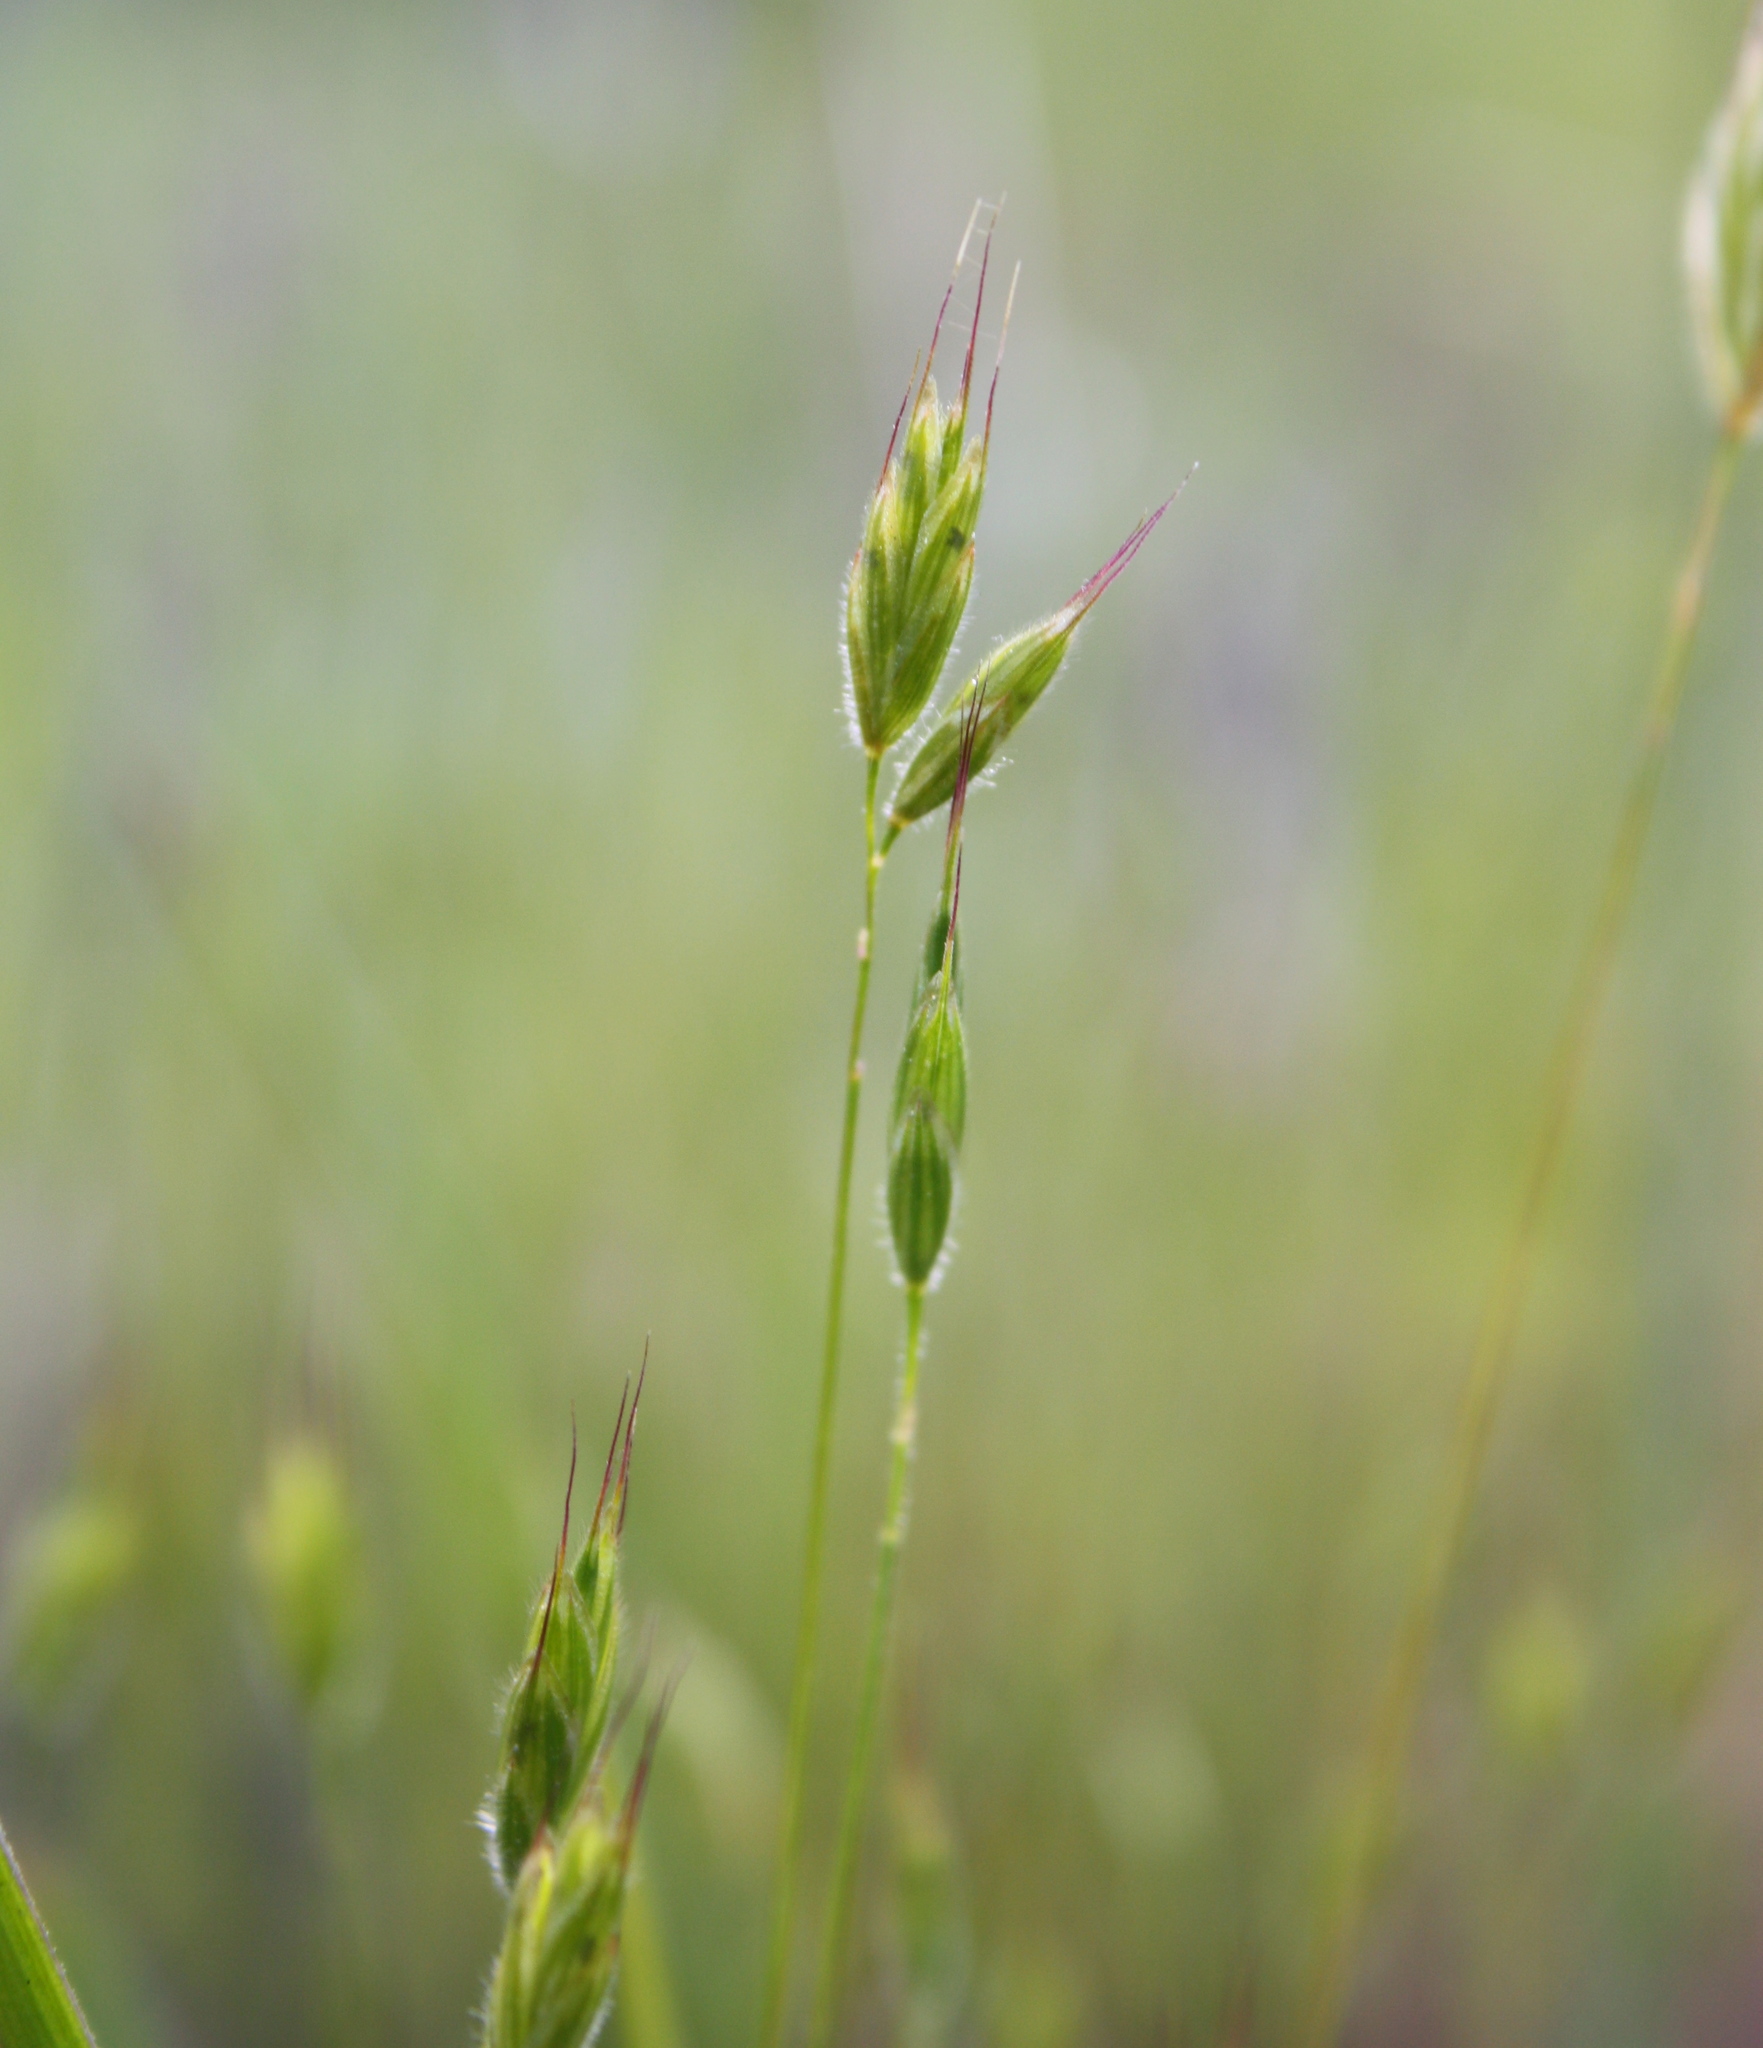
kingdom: Plantae
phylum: Tracheophyta
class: Liliopsida
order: Poales
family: Poaceae
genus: Bromus
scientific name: Bromus hordeaceus
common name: Soft brome
